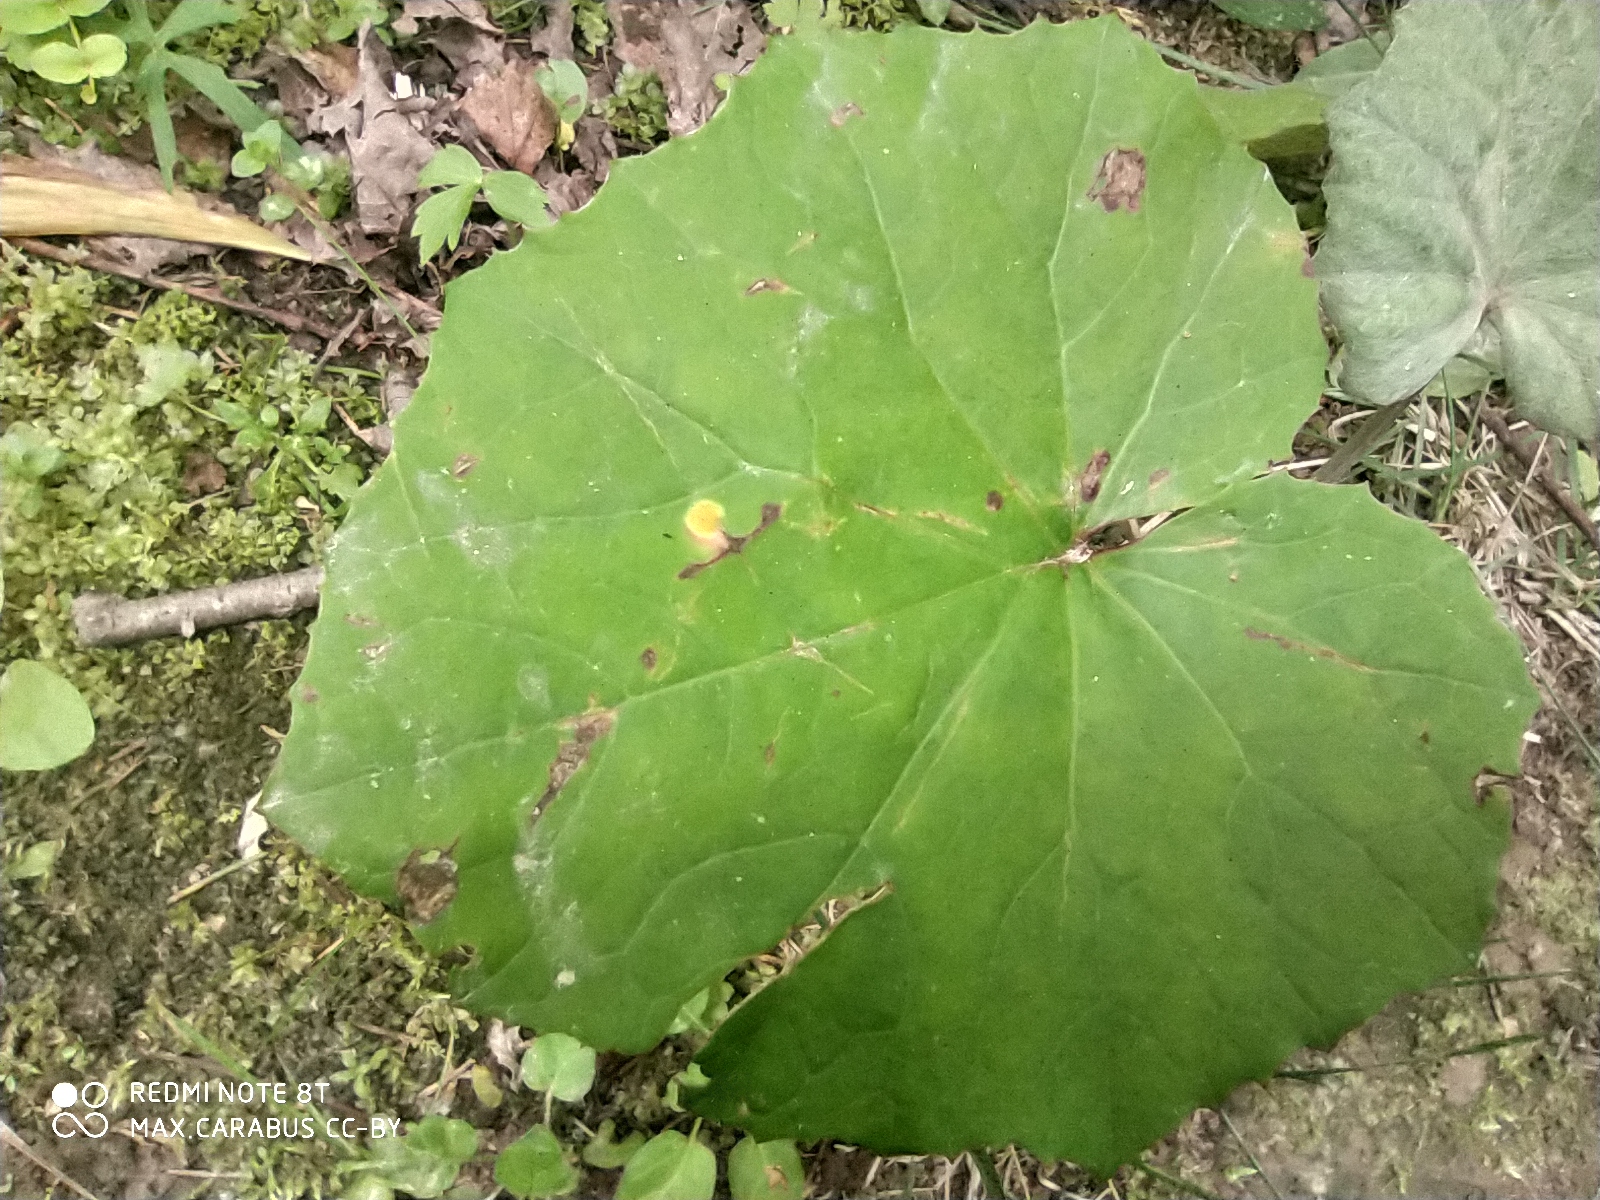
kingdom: Plantae
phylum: Tracheophyta
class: Magnoliopsida
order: Asterales
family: Asteraceae
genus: Tussilago
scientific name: Tussilago farfara
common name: Coltsfoot
